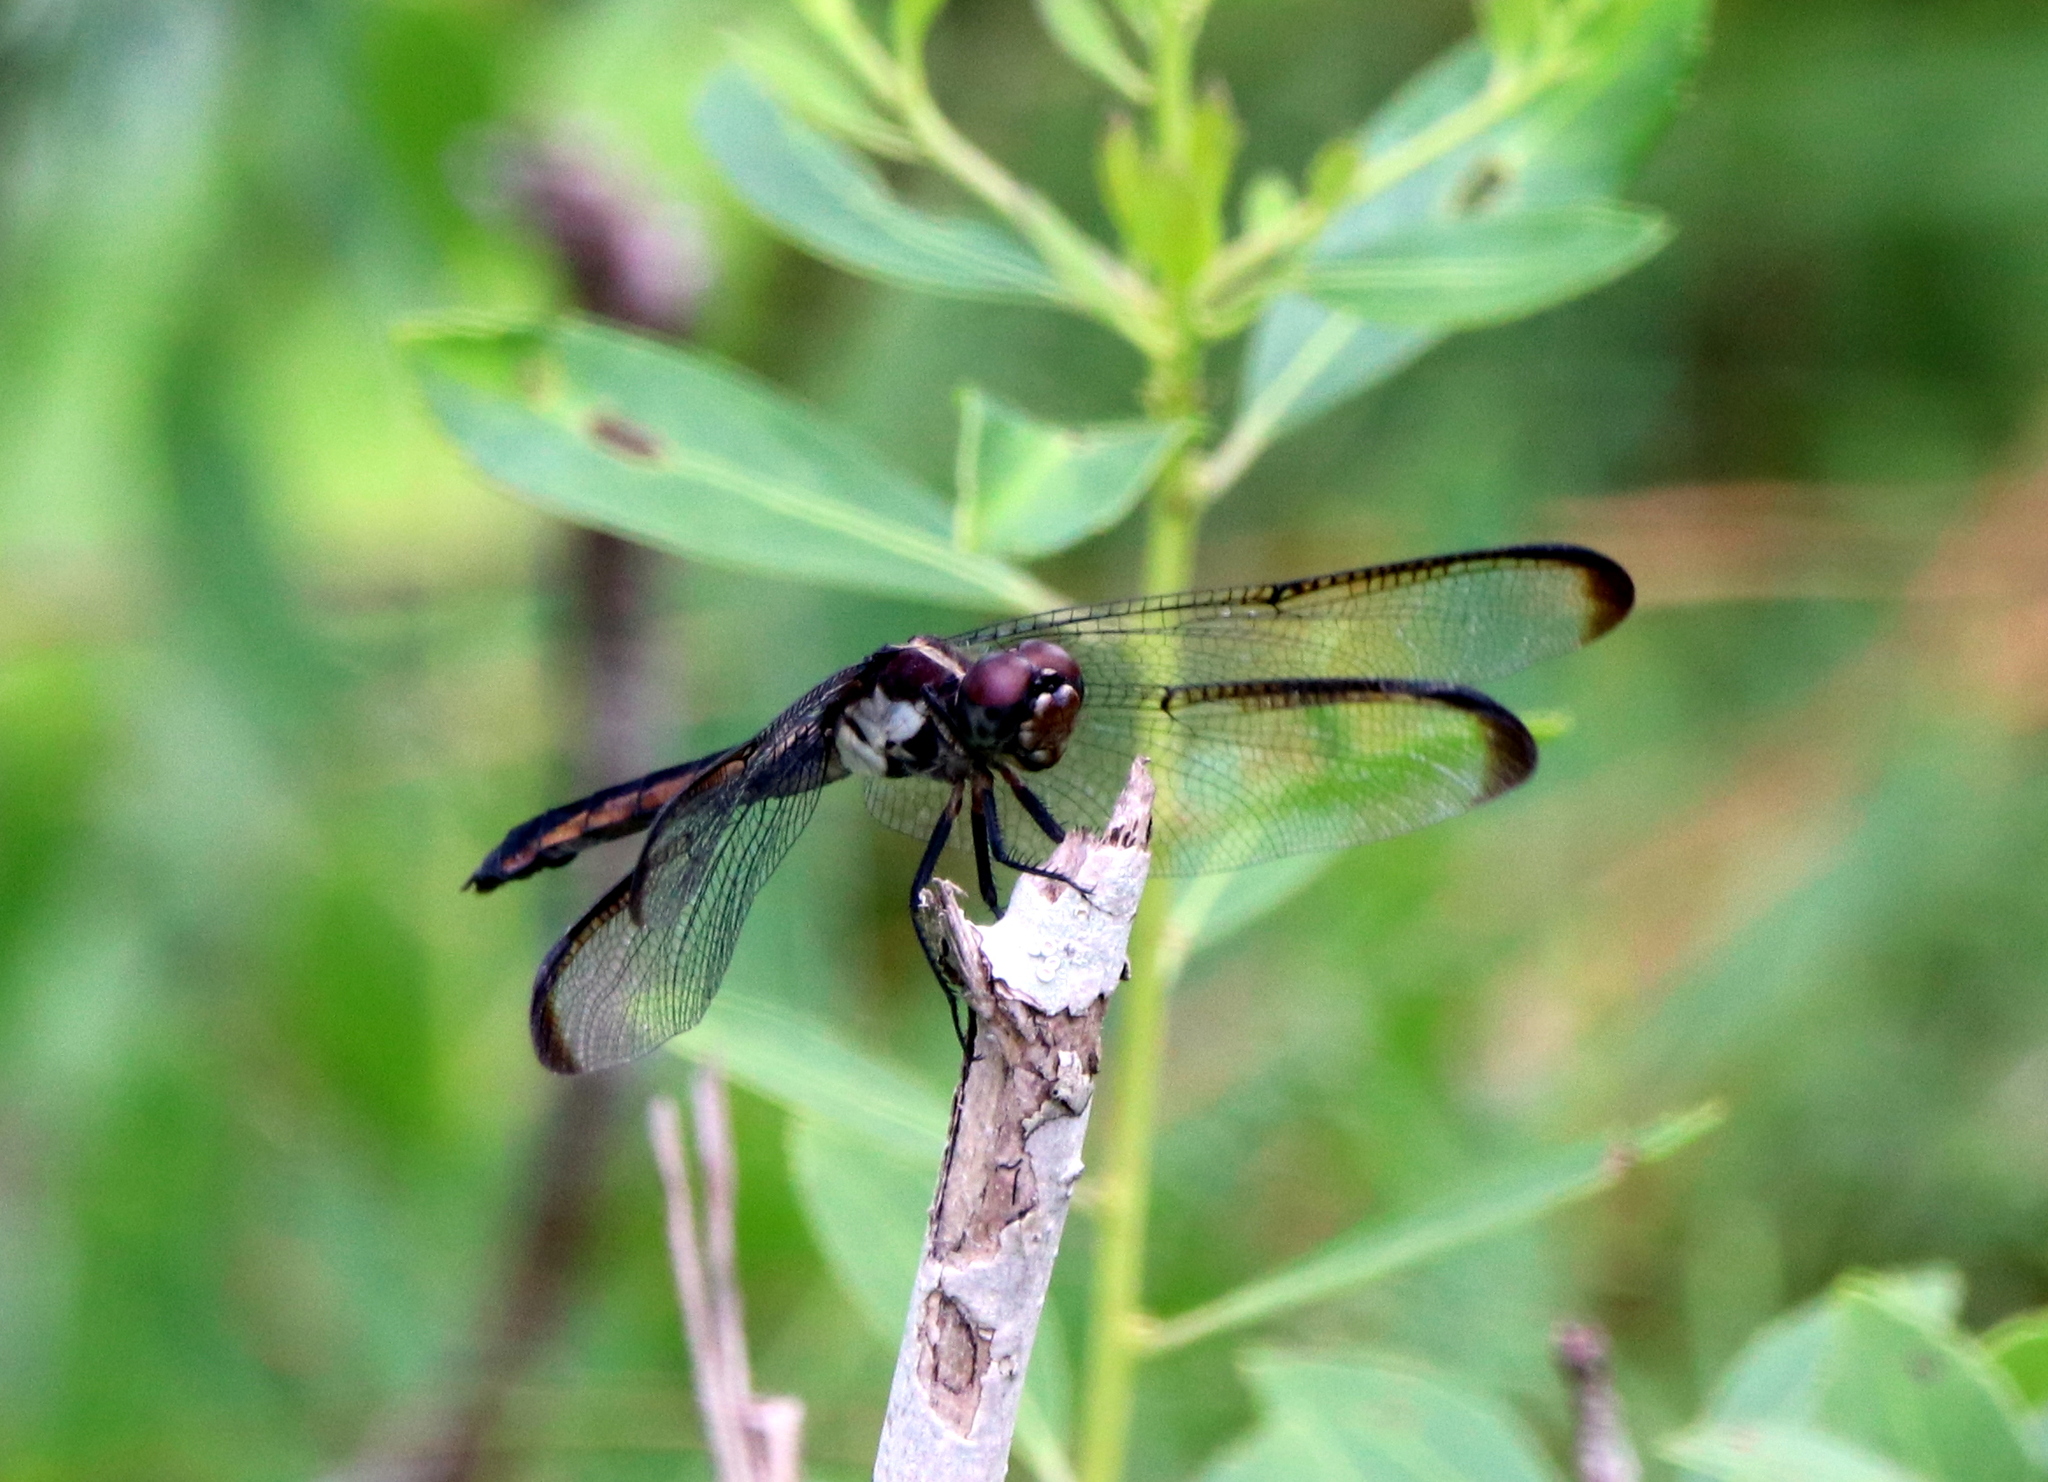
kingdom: Animalia
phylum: Arthropoda
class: Insecta
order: Odonata
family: Libellulidae
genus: Libellula
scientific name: Libellula incesta
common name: Slaty skimmer
